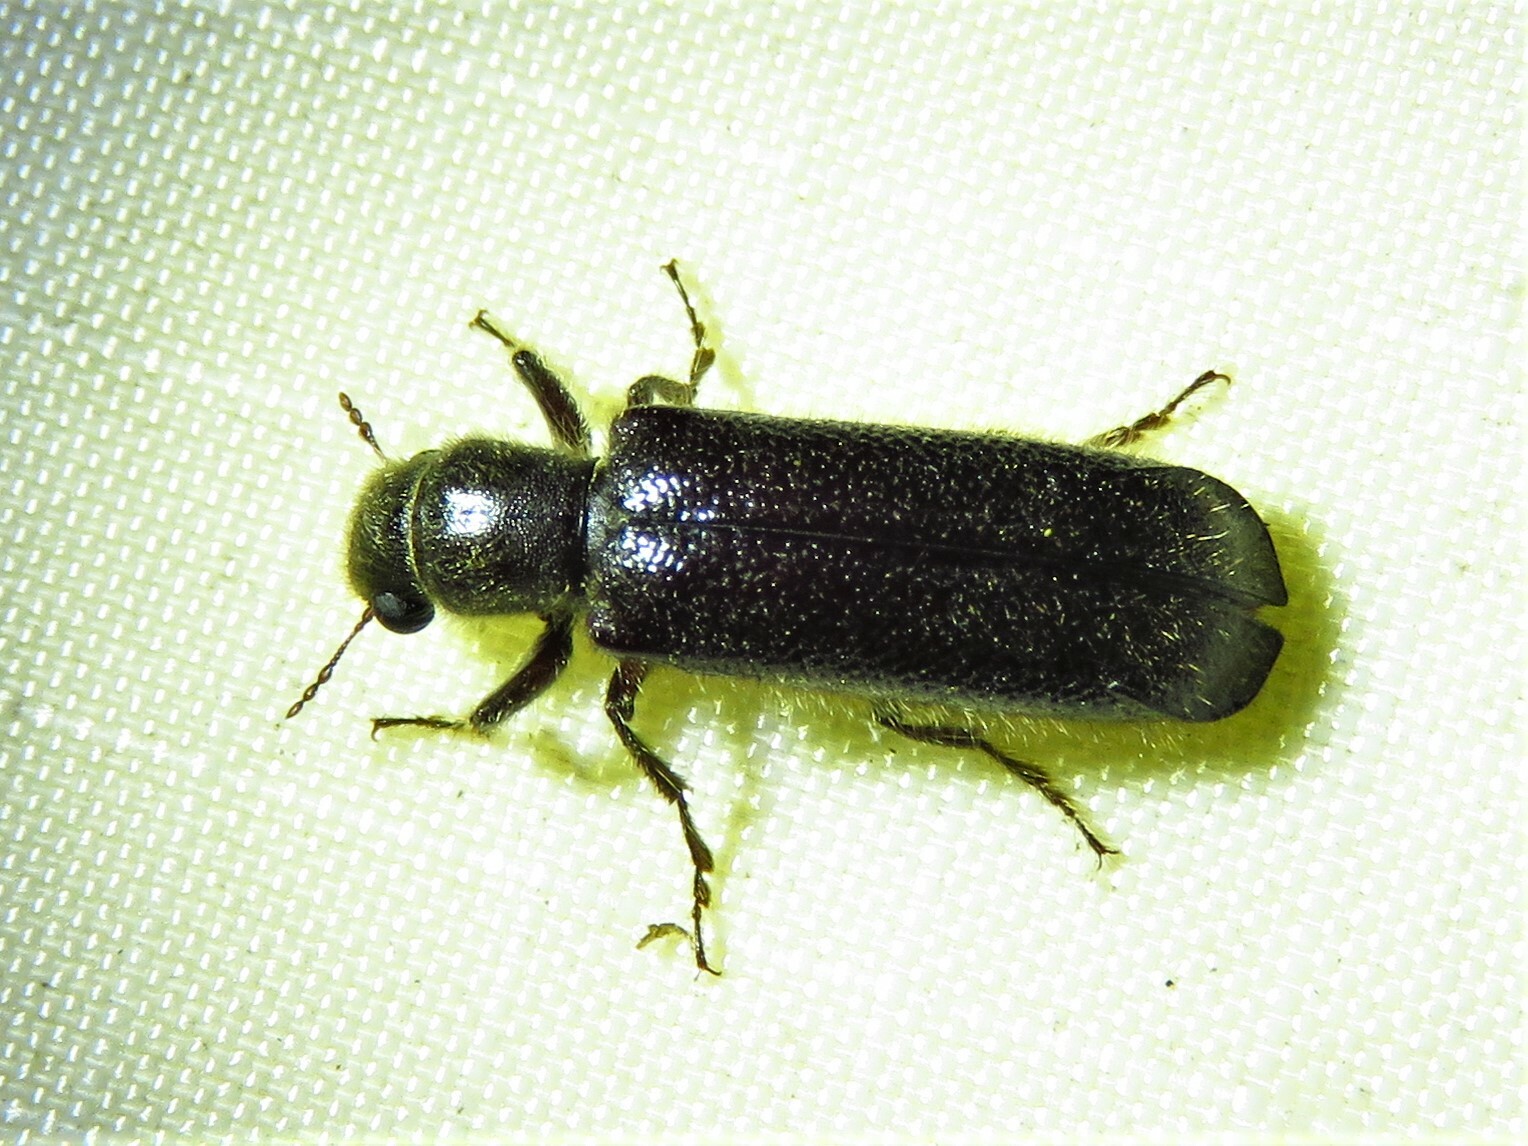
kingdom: Animalia
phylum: Arthropoda
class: Insecta
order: Coleoptera
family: Bostrichidae
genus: Melalgus
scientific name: Melalgus plicatus
